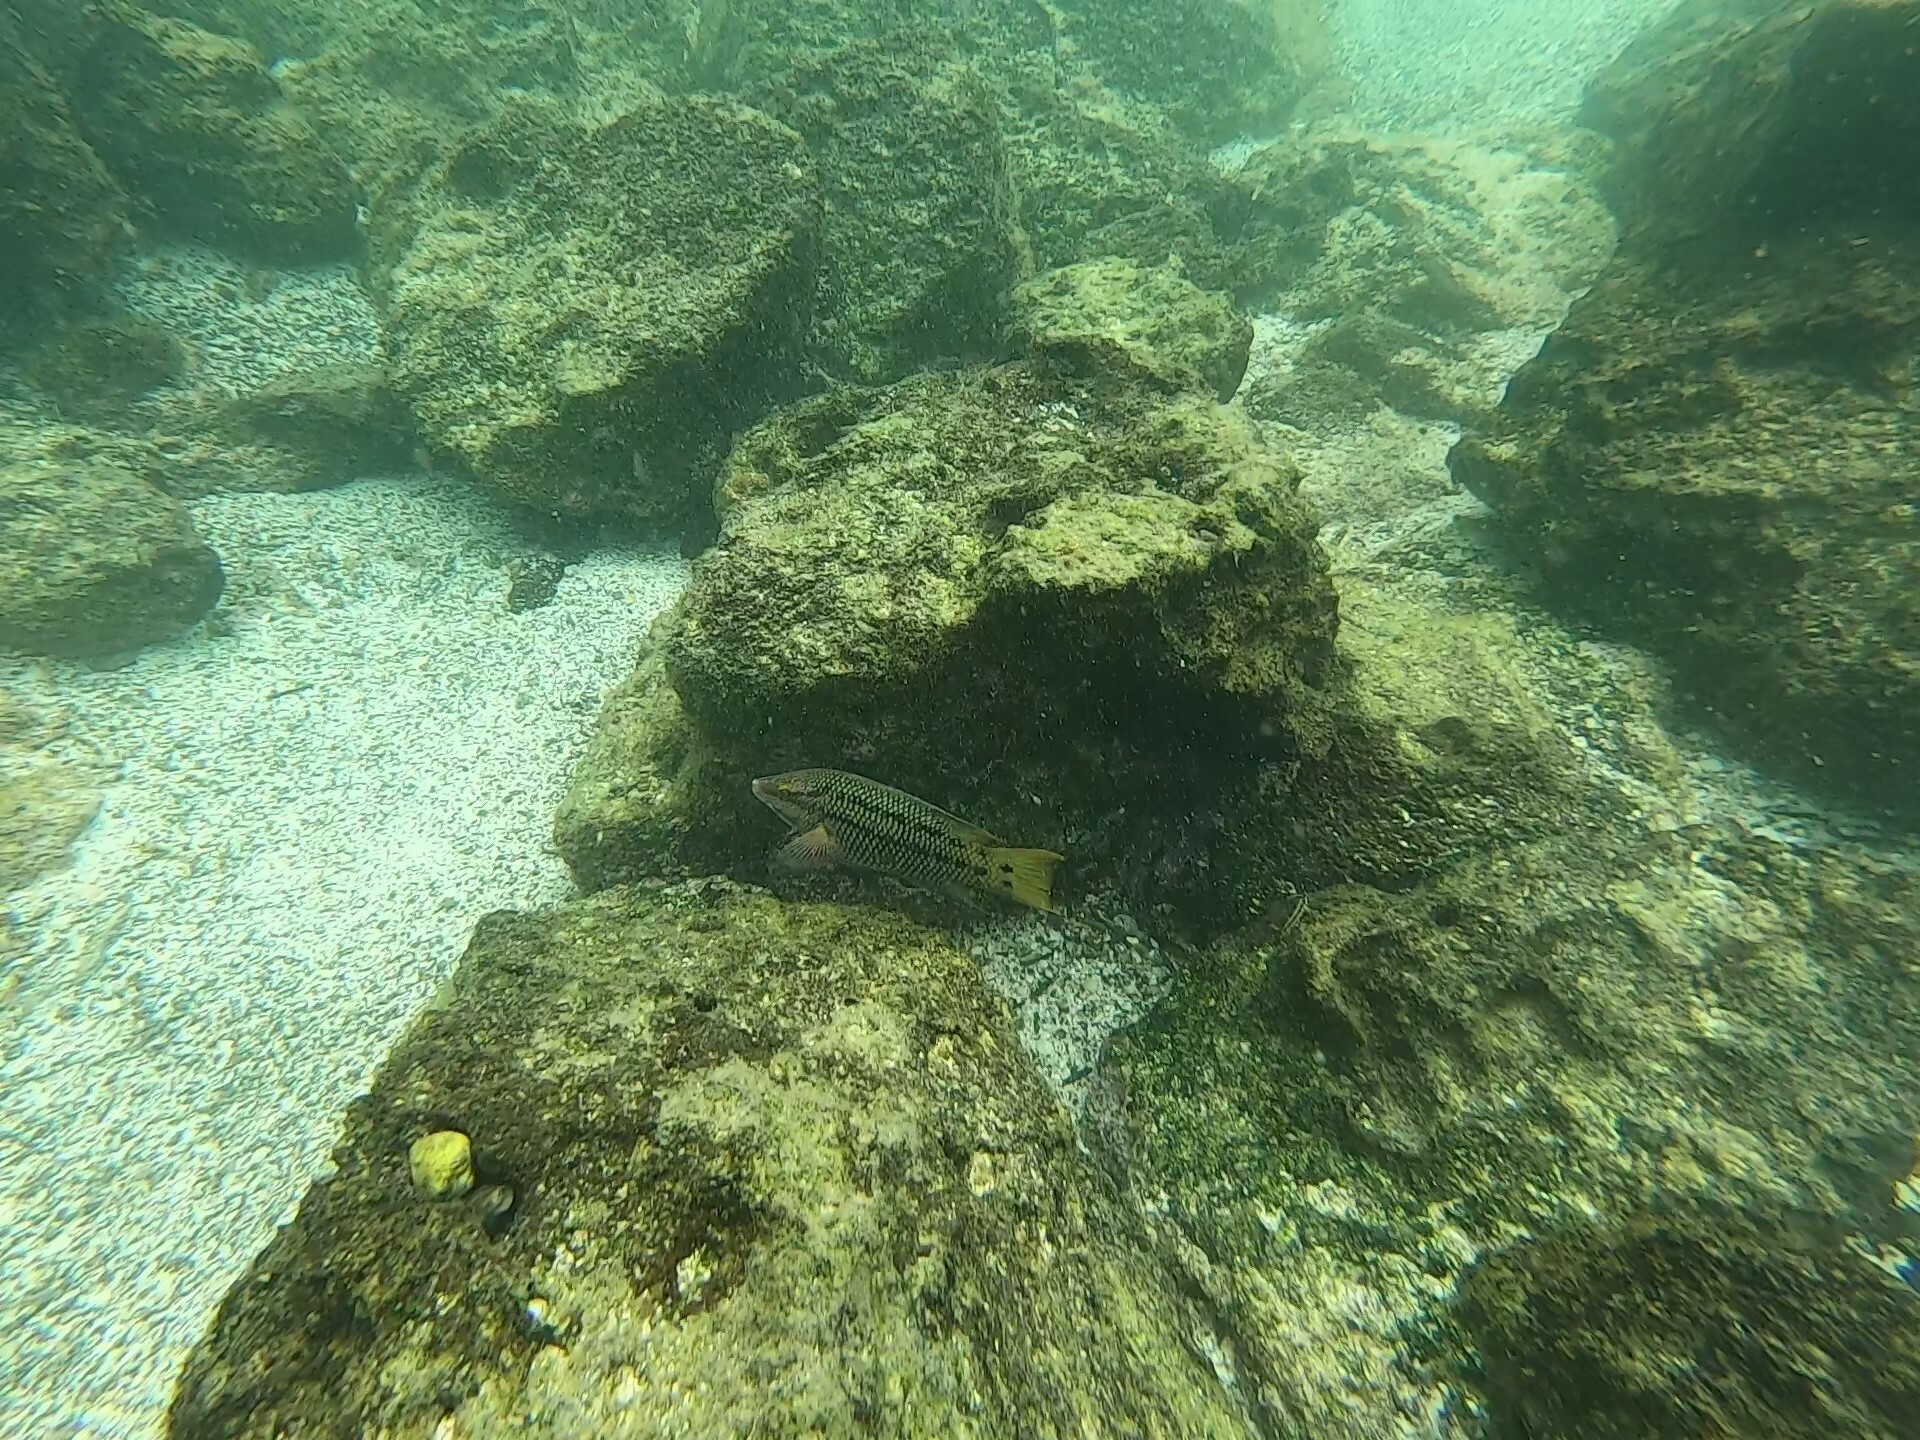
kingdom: Animalia
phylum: Chordata
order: Perciformes
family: Labridae
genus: Bodianus
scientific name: Bodianus diplotaenia
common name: Mexican hogfish
